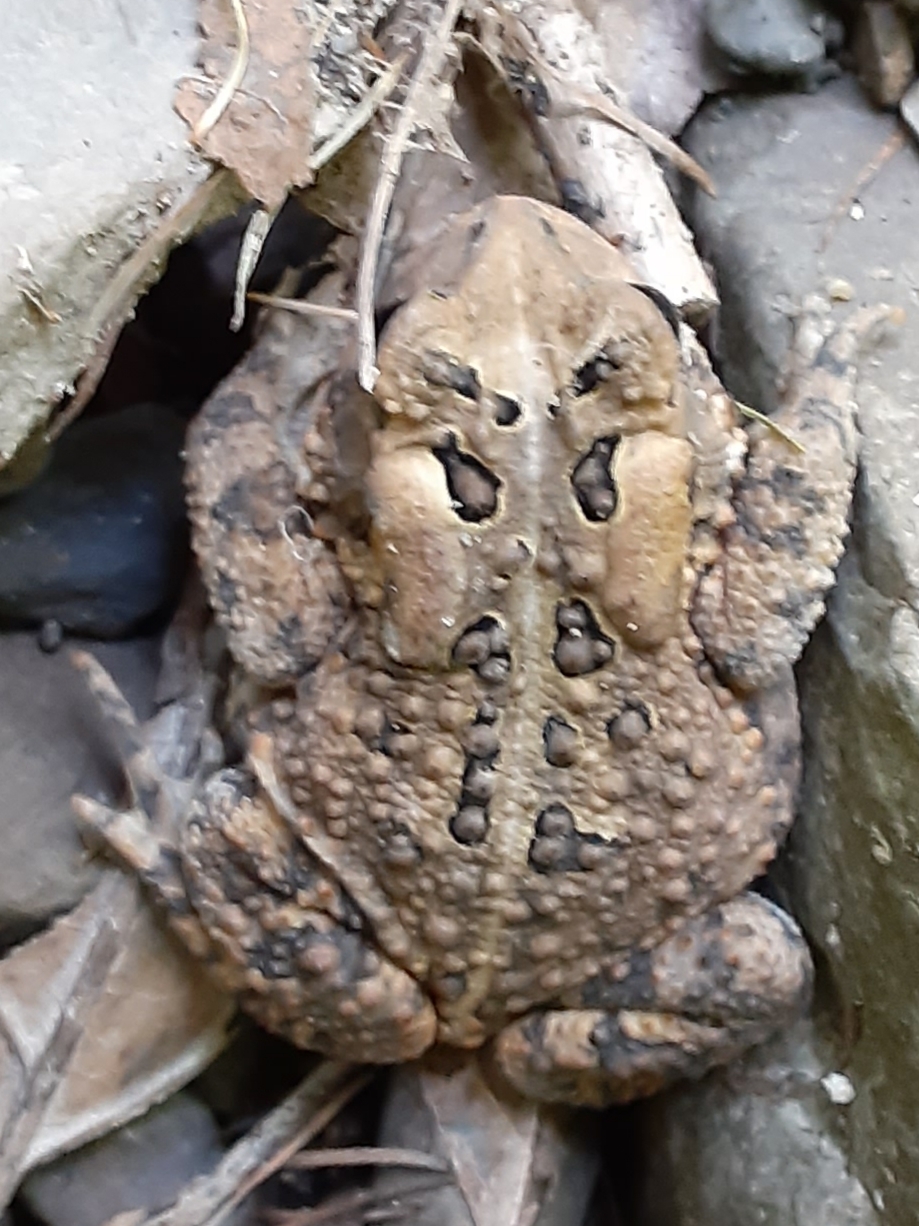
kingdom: Animalia
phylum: Chordata
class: Amphibia
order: Anura
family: Bufonidae
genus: Anaxyrus
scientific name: Anaxyrus americanus
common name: American toad
